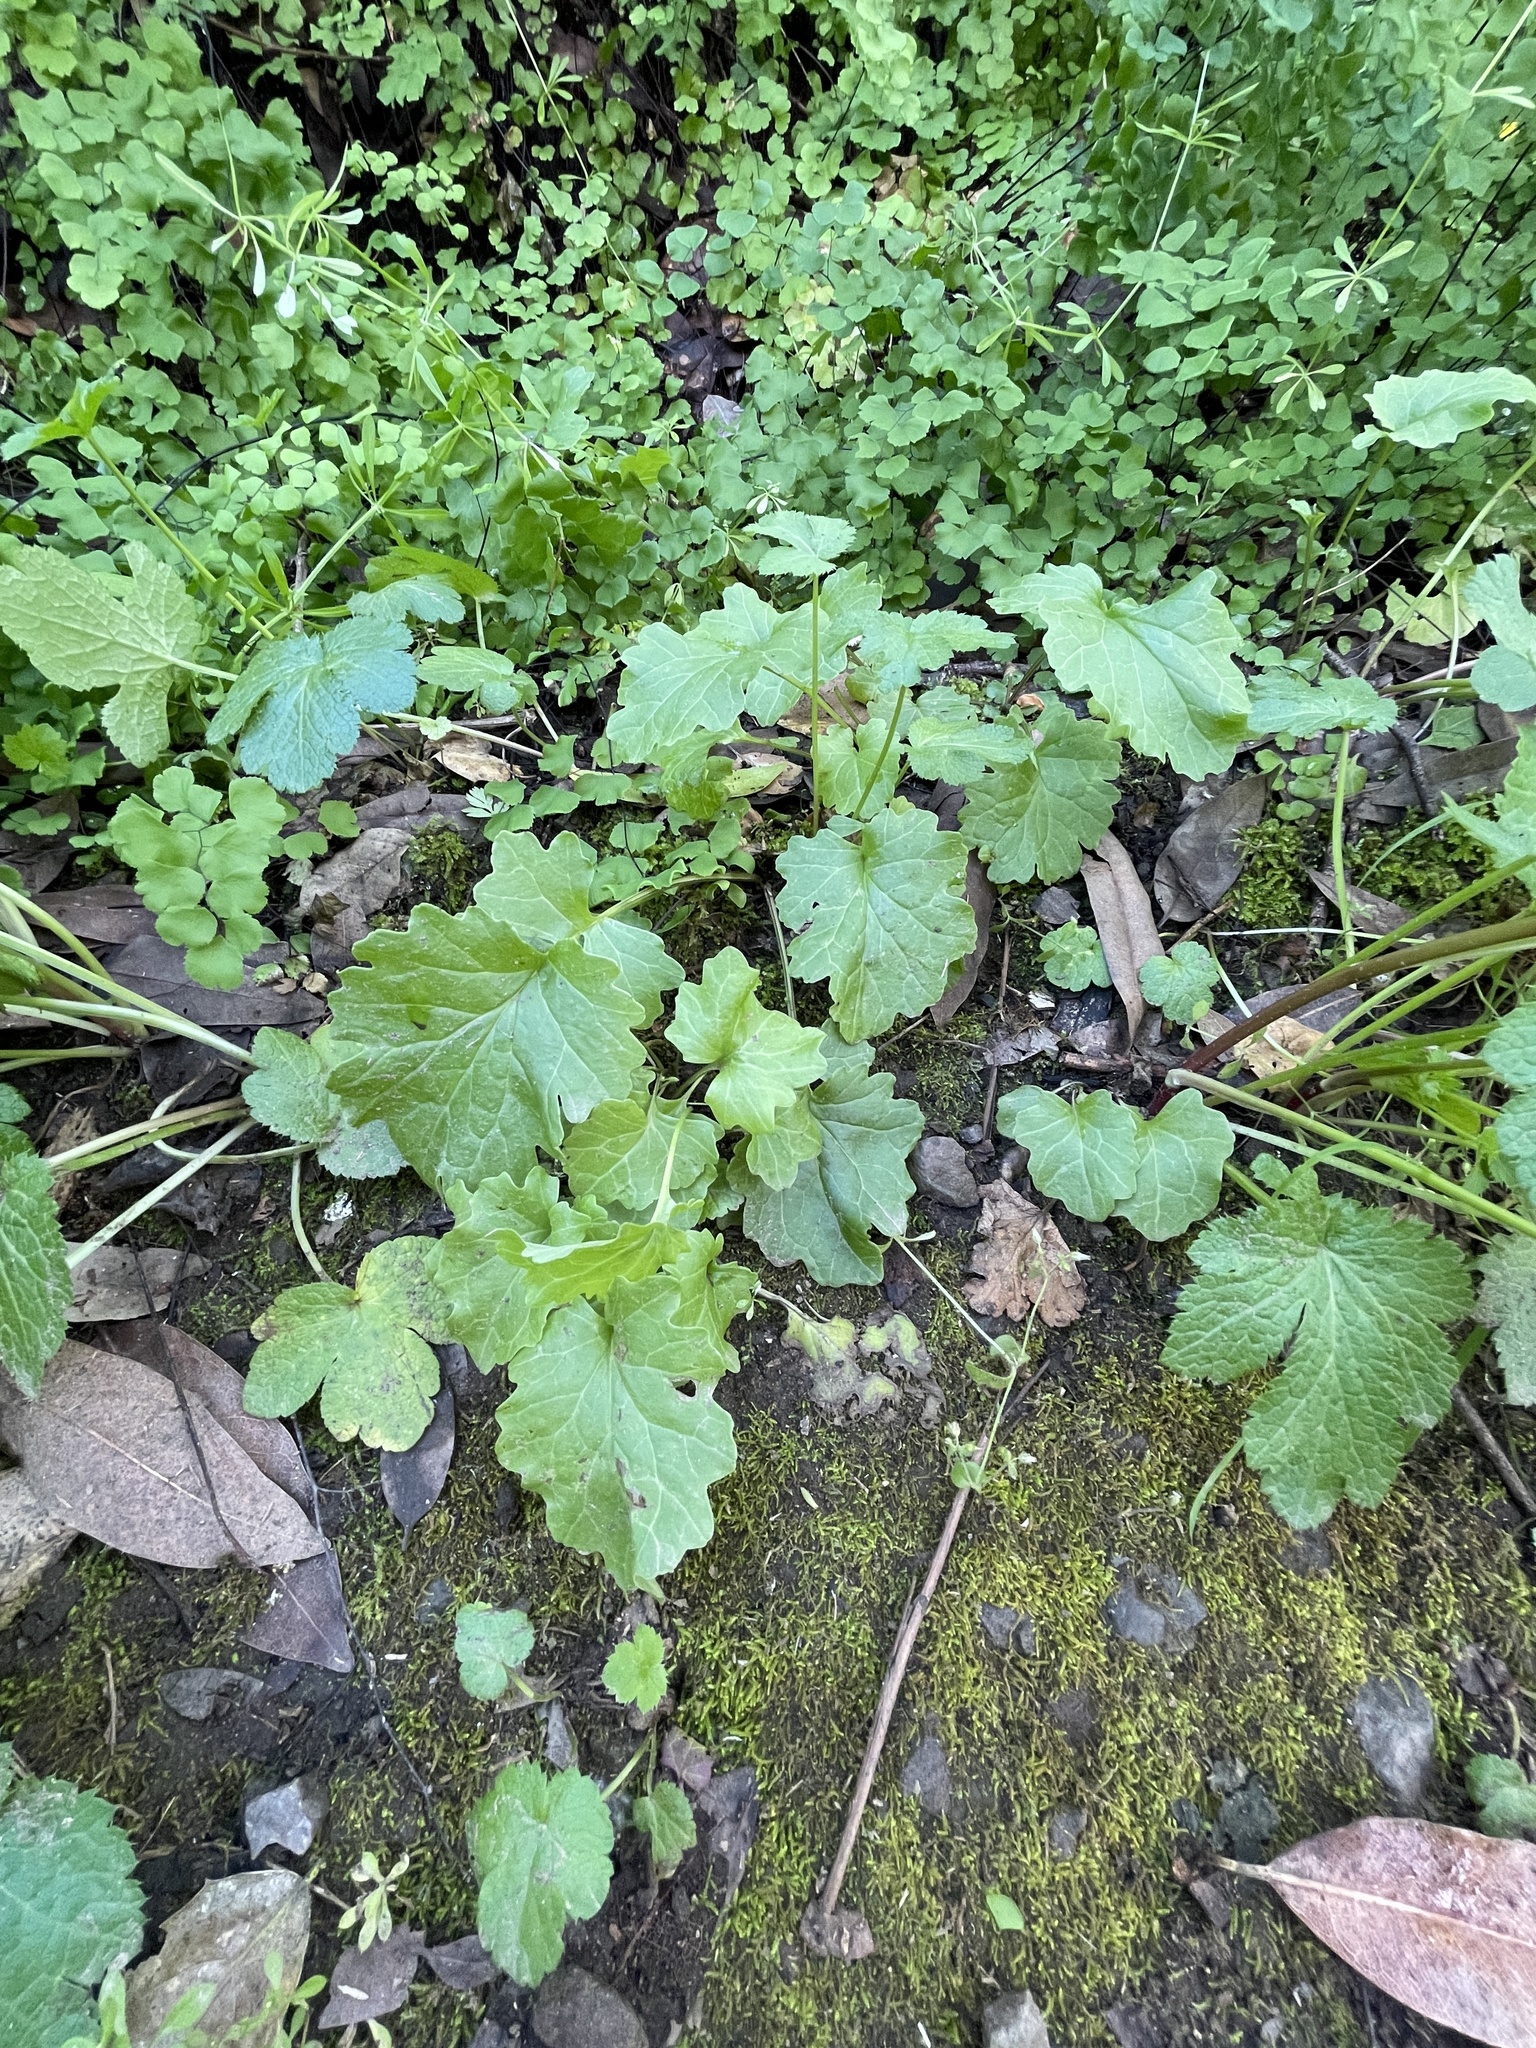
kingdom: Plantae
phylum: Tracheophyta
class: Magnoliopsida
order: Asterales
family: Asteraceae
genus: Packera
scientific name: Packera breweri
